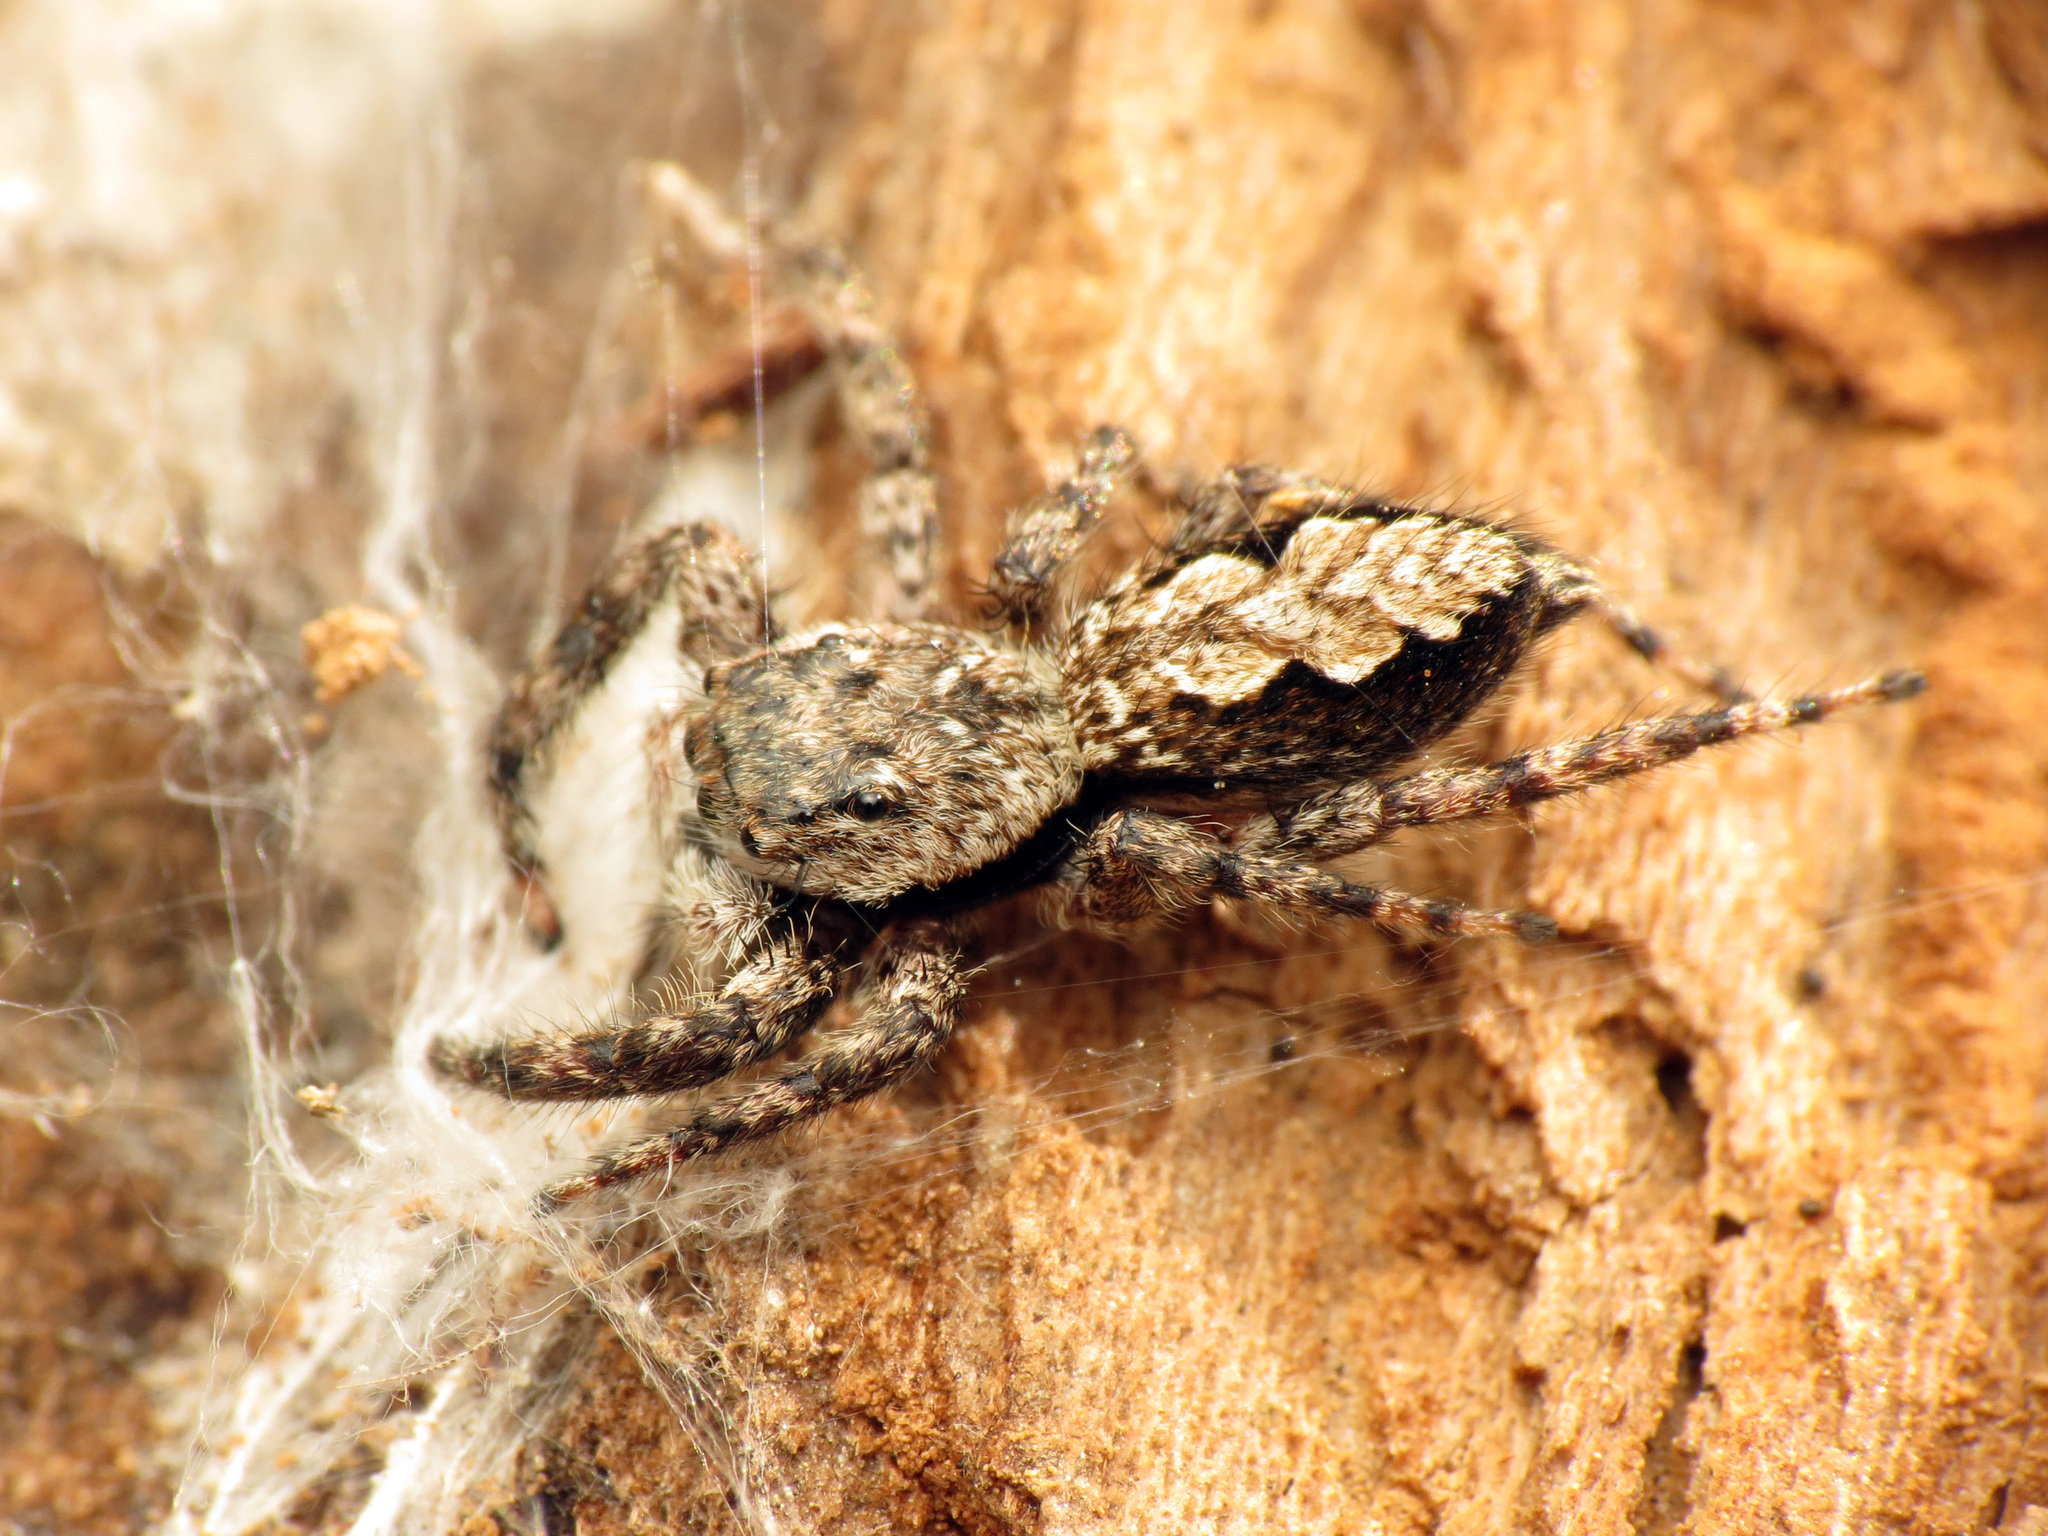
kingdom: Animalia
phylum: Arthropoda
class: Arachnida
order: Araneae
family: Salticidae
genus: Platycryptus
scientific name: Platycryptus undatus
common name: Tan jumping spider
